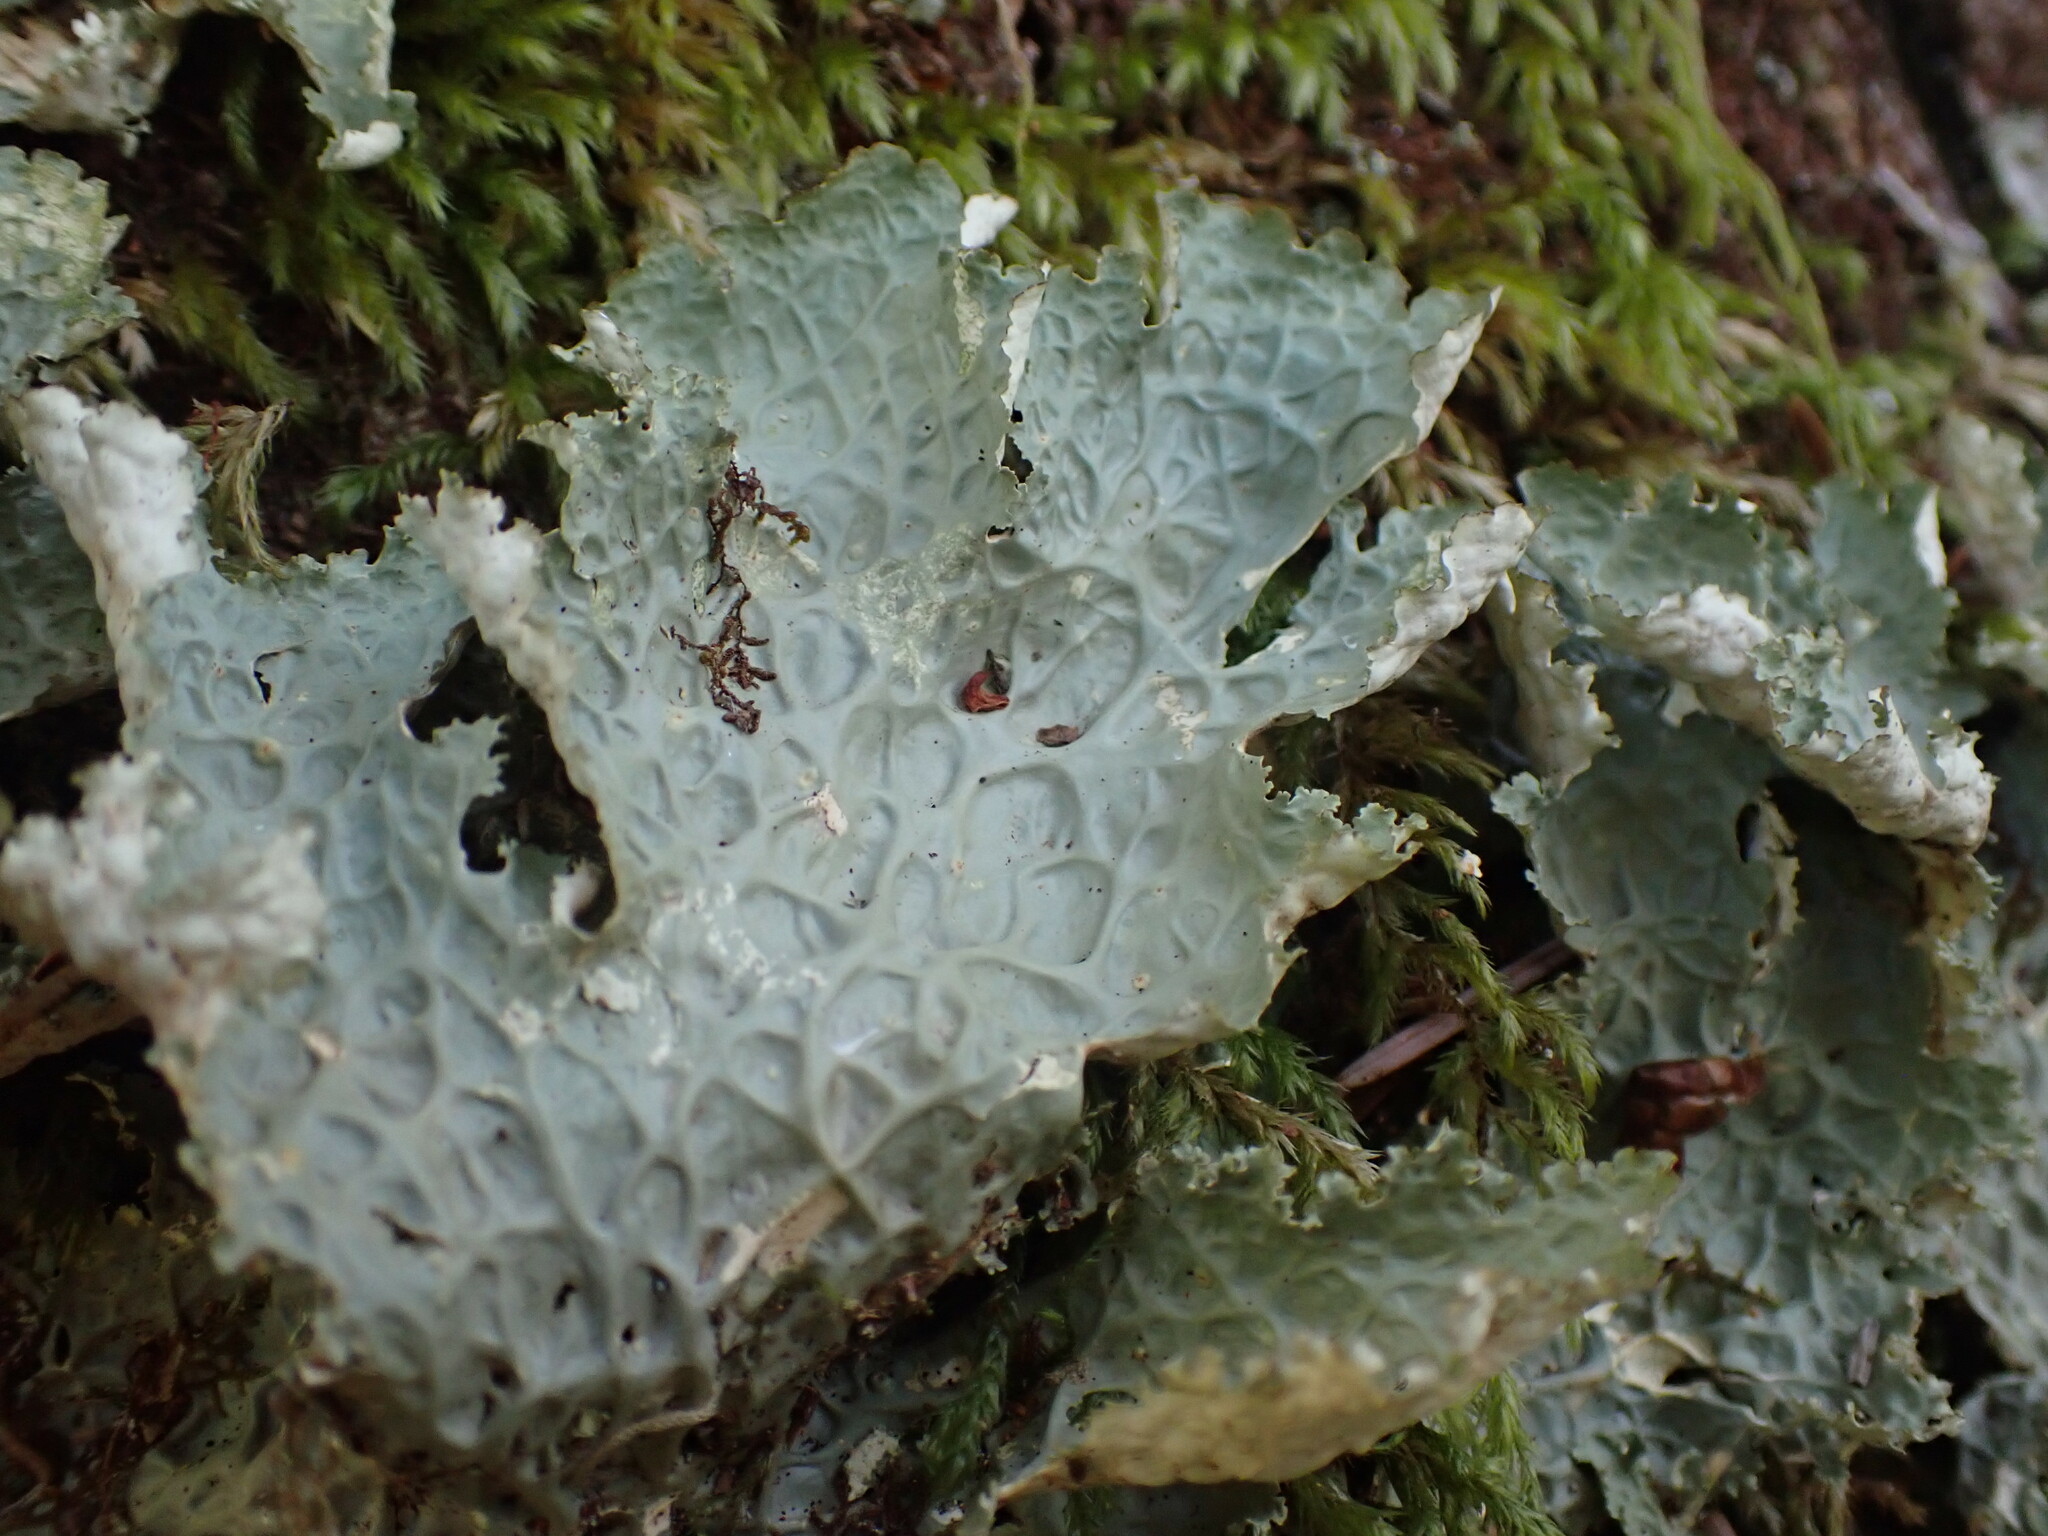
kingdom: Fungi
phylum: Ascomycota
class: Lecanoromycetes
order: Peltigerales
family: Lobariaceae
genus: Lobaria
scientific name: Lobaria oregana
